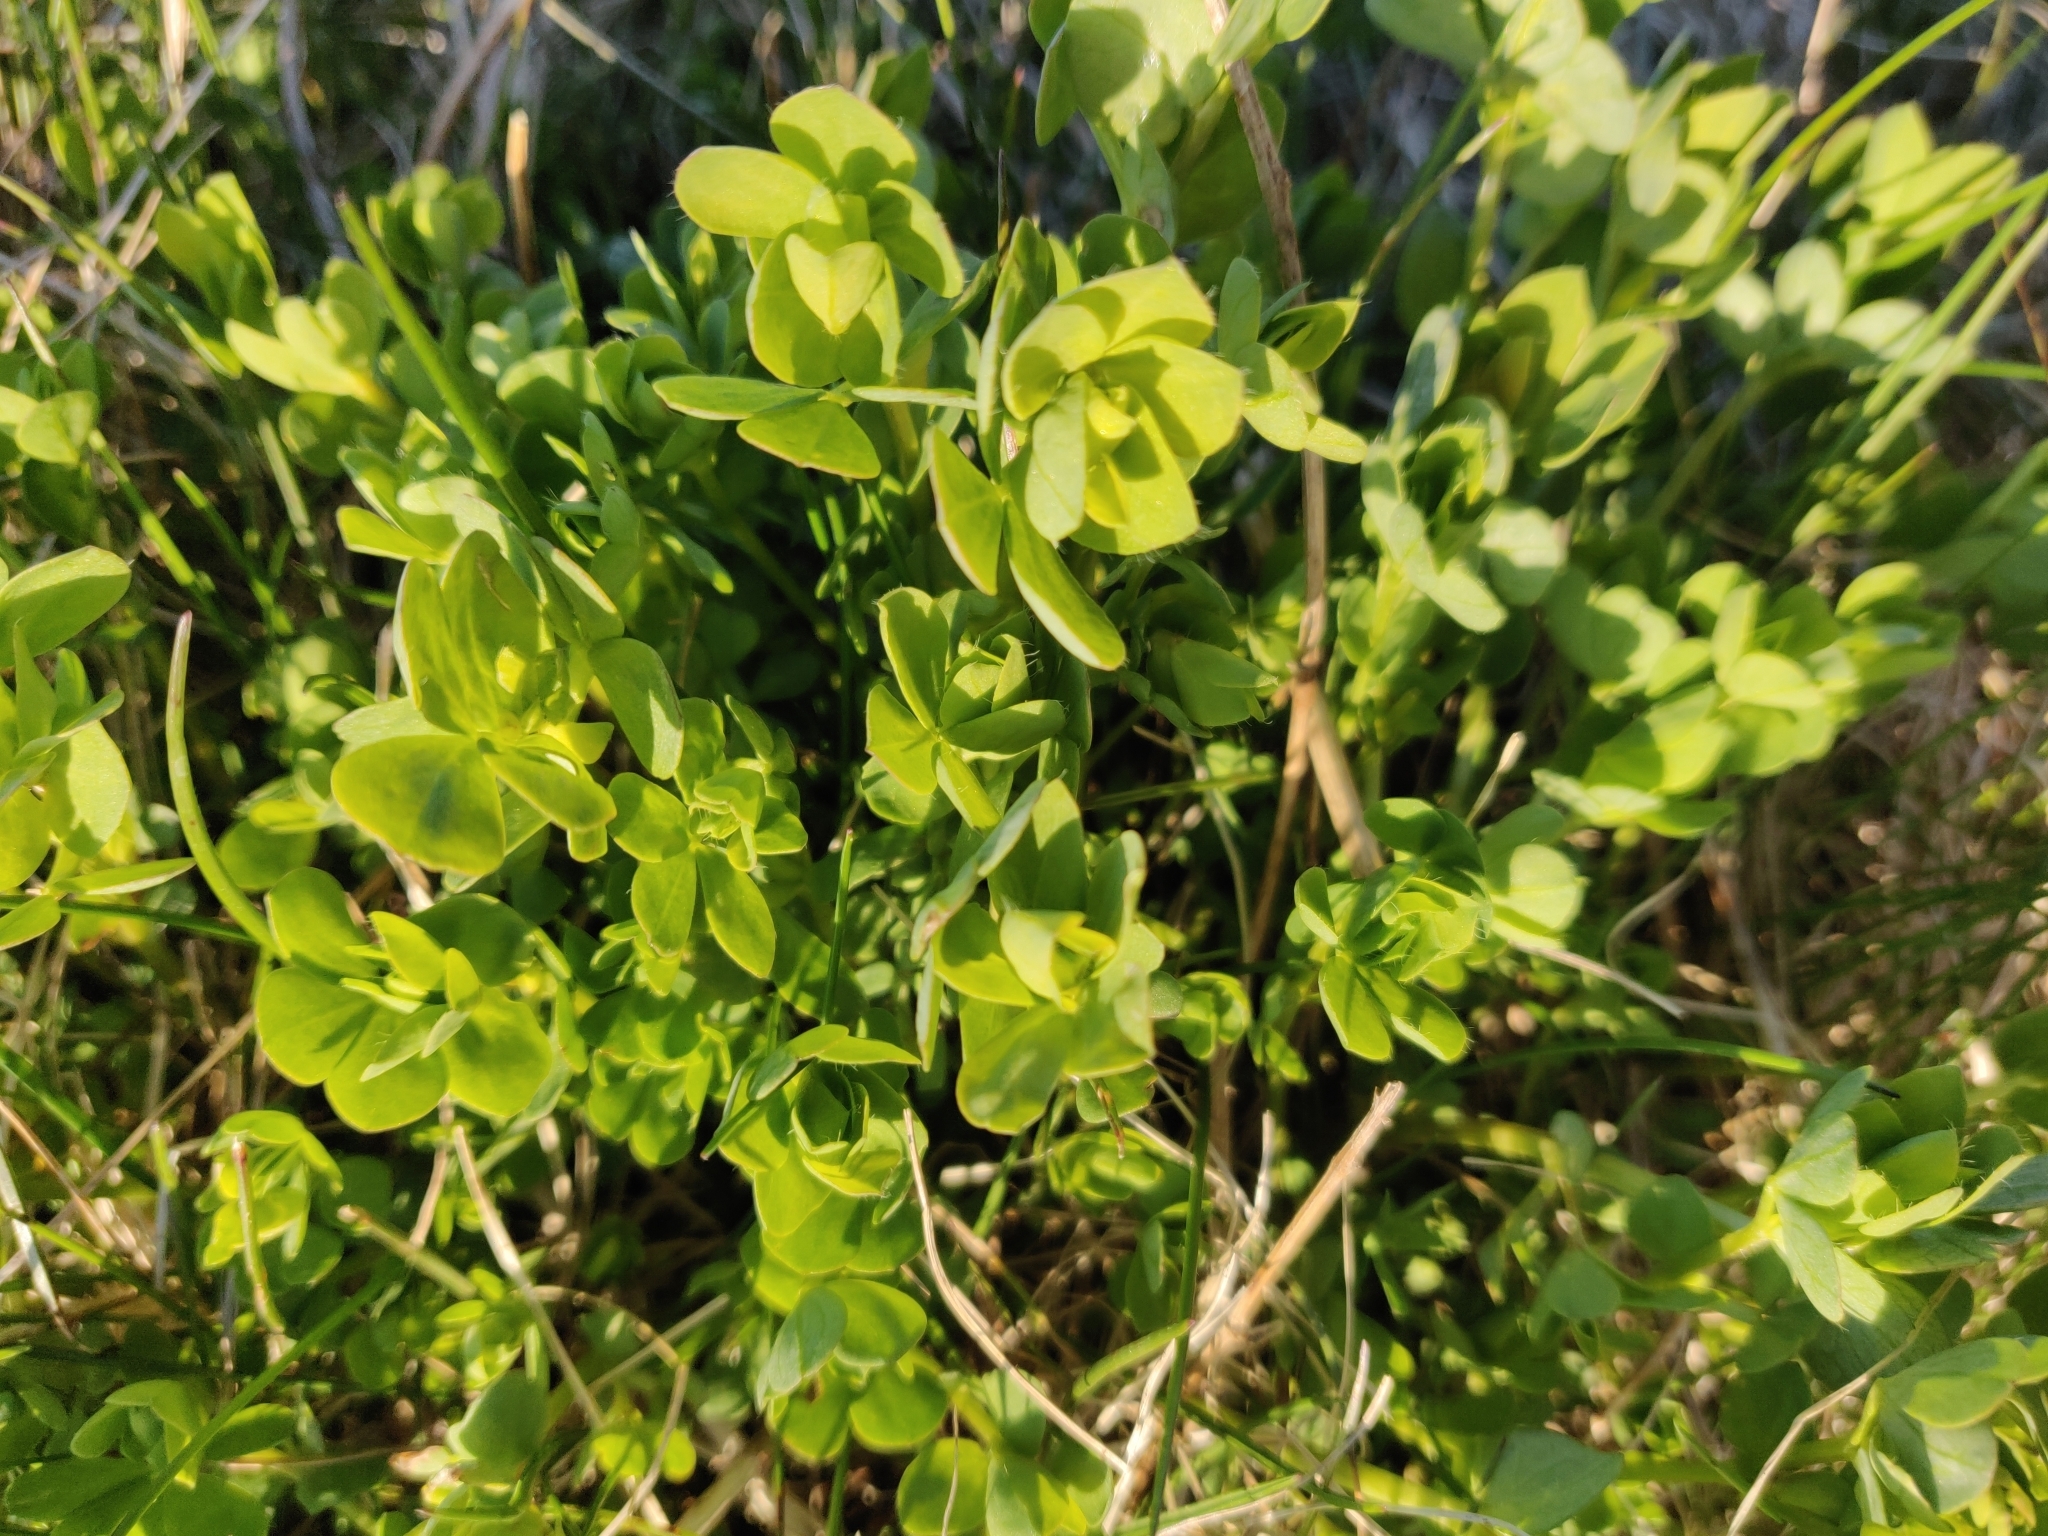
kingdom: Plantae
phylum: Tracheophyta
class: Magnoliopsida
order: Fabales
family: Fabaceae
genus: Lotus
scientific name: Lotus corniculatus
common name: Common bird's-foot-trefoil
